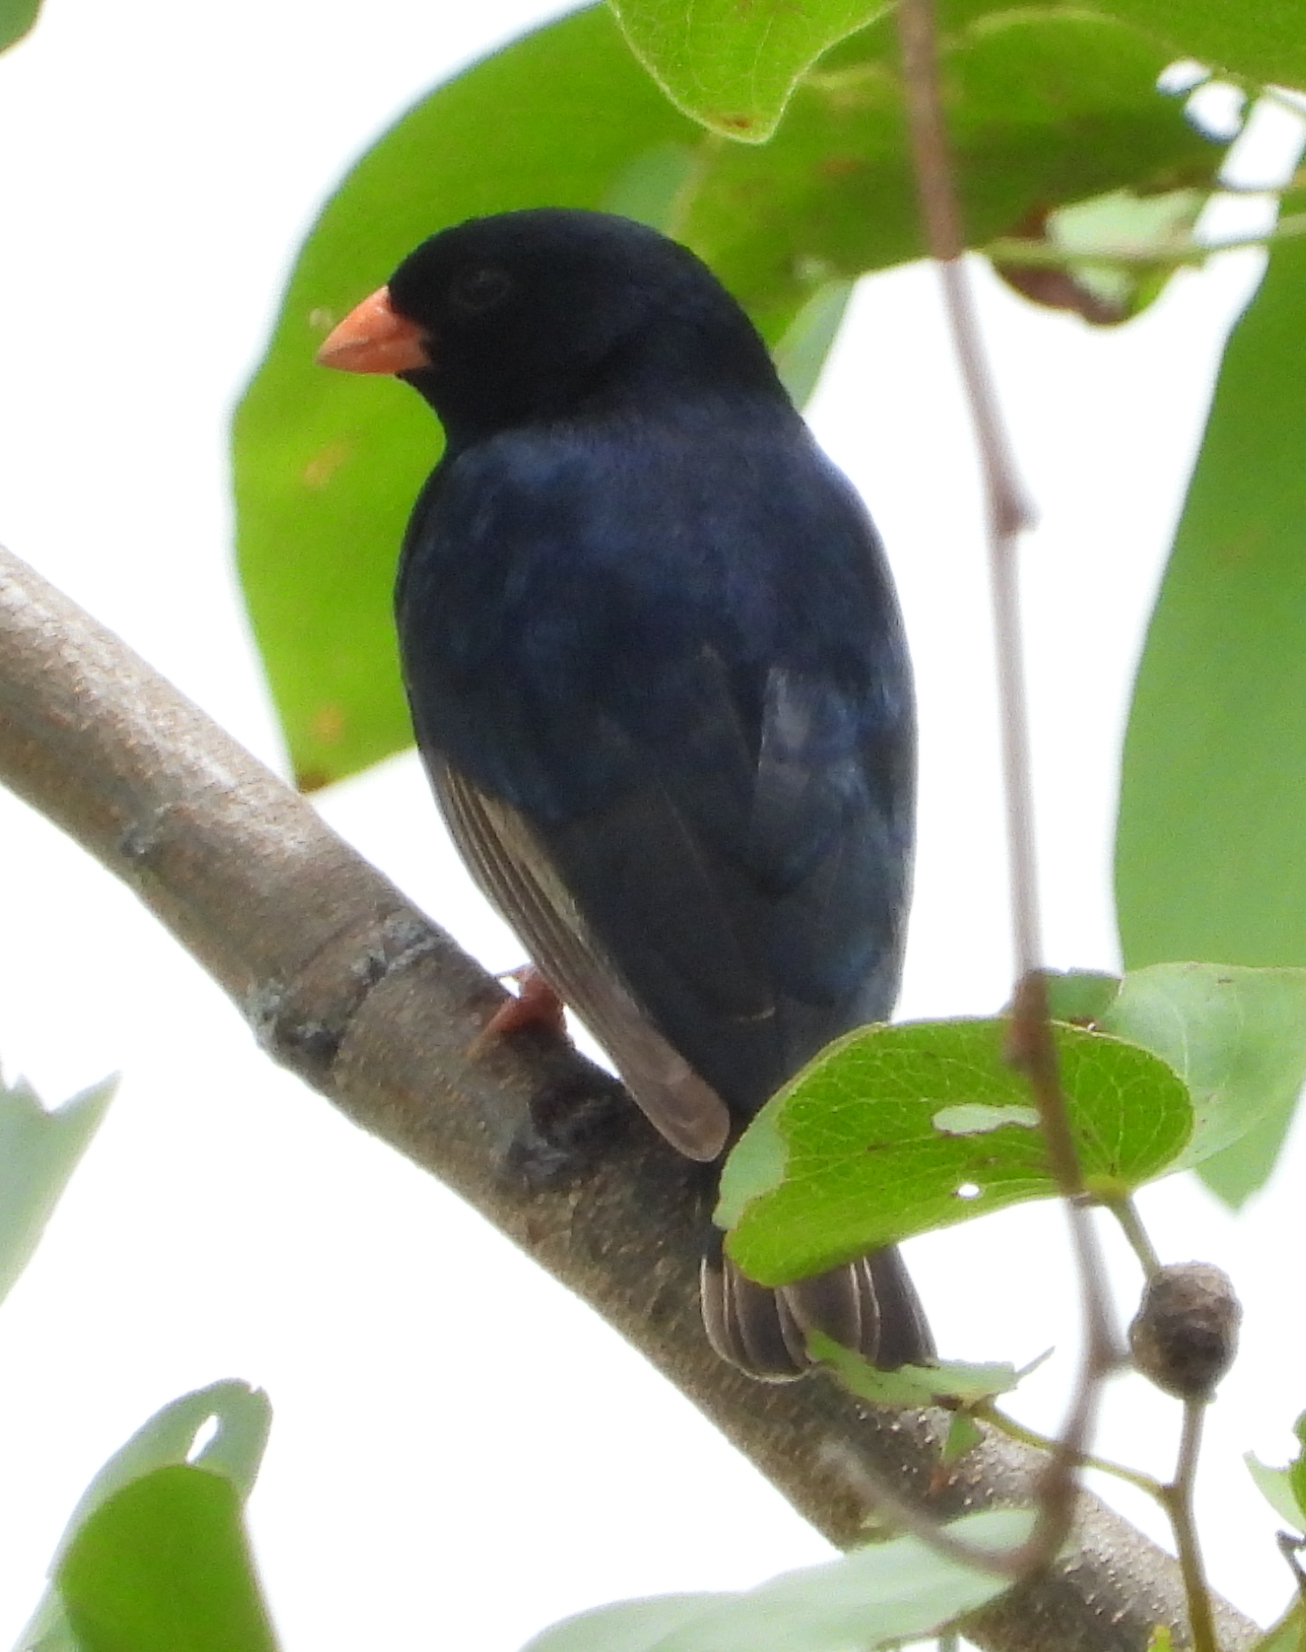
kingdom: Animalia
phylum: Chordata
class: Aves
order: Passeriformes
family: Viduidae
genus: Vidua
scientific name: Vidua chalybeata
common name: Village indigobird
